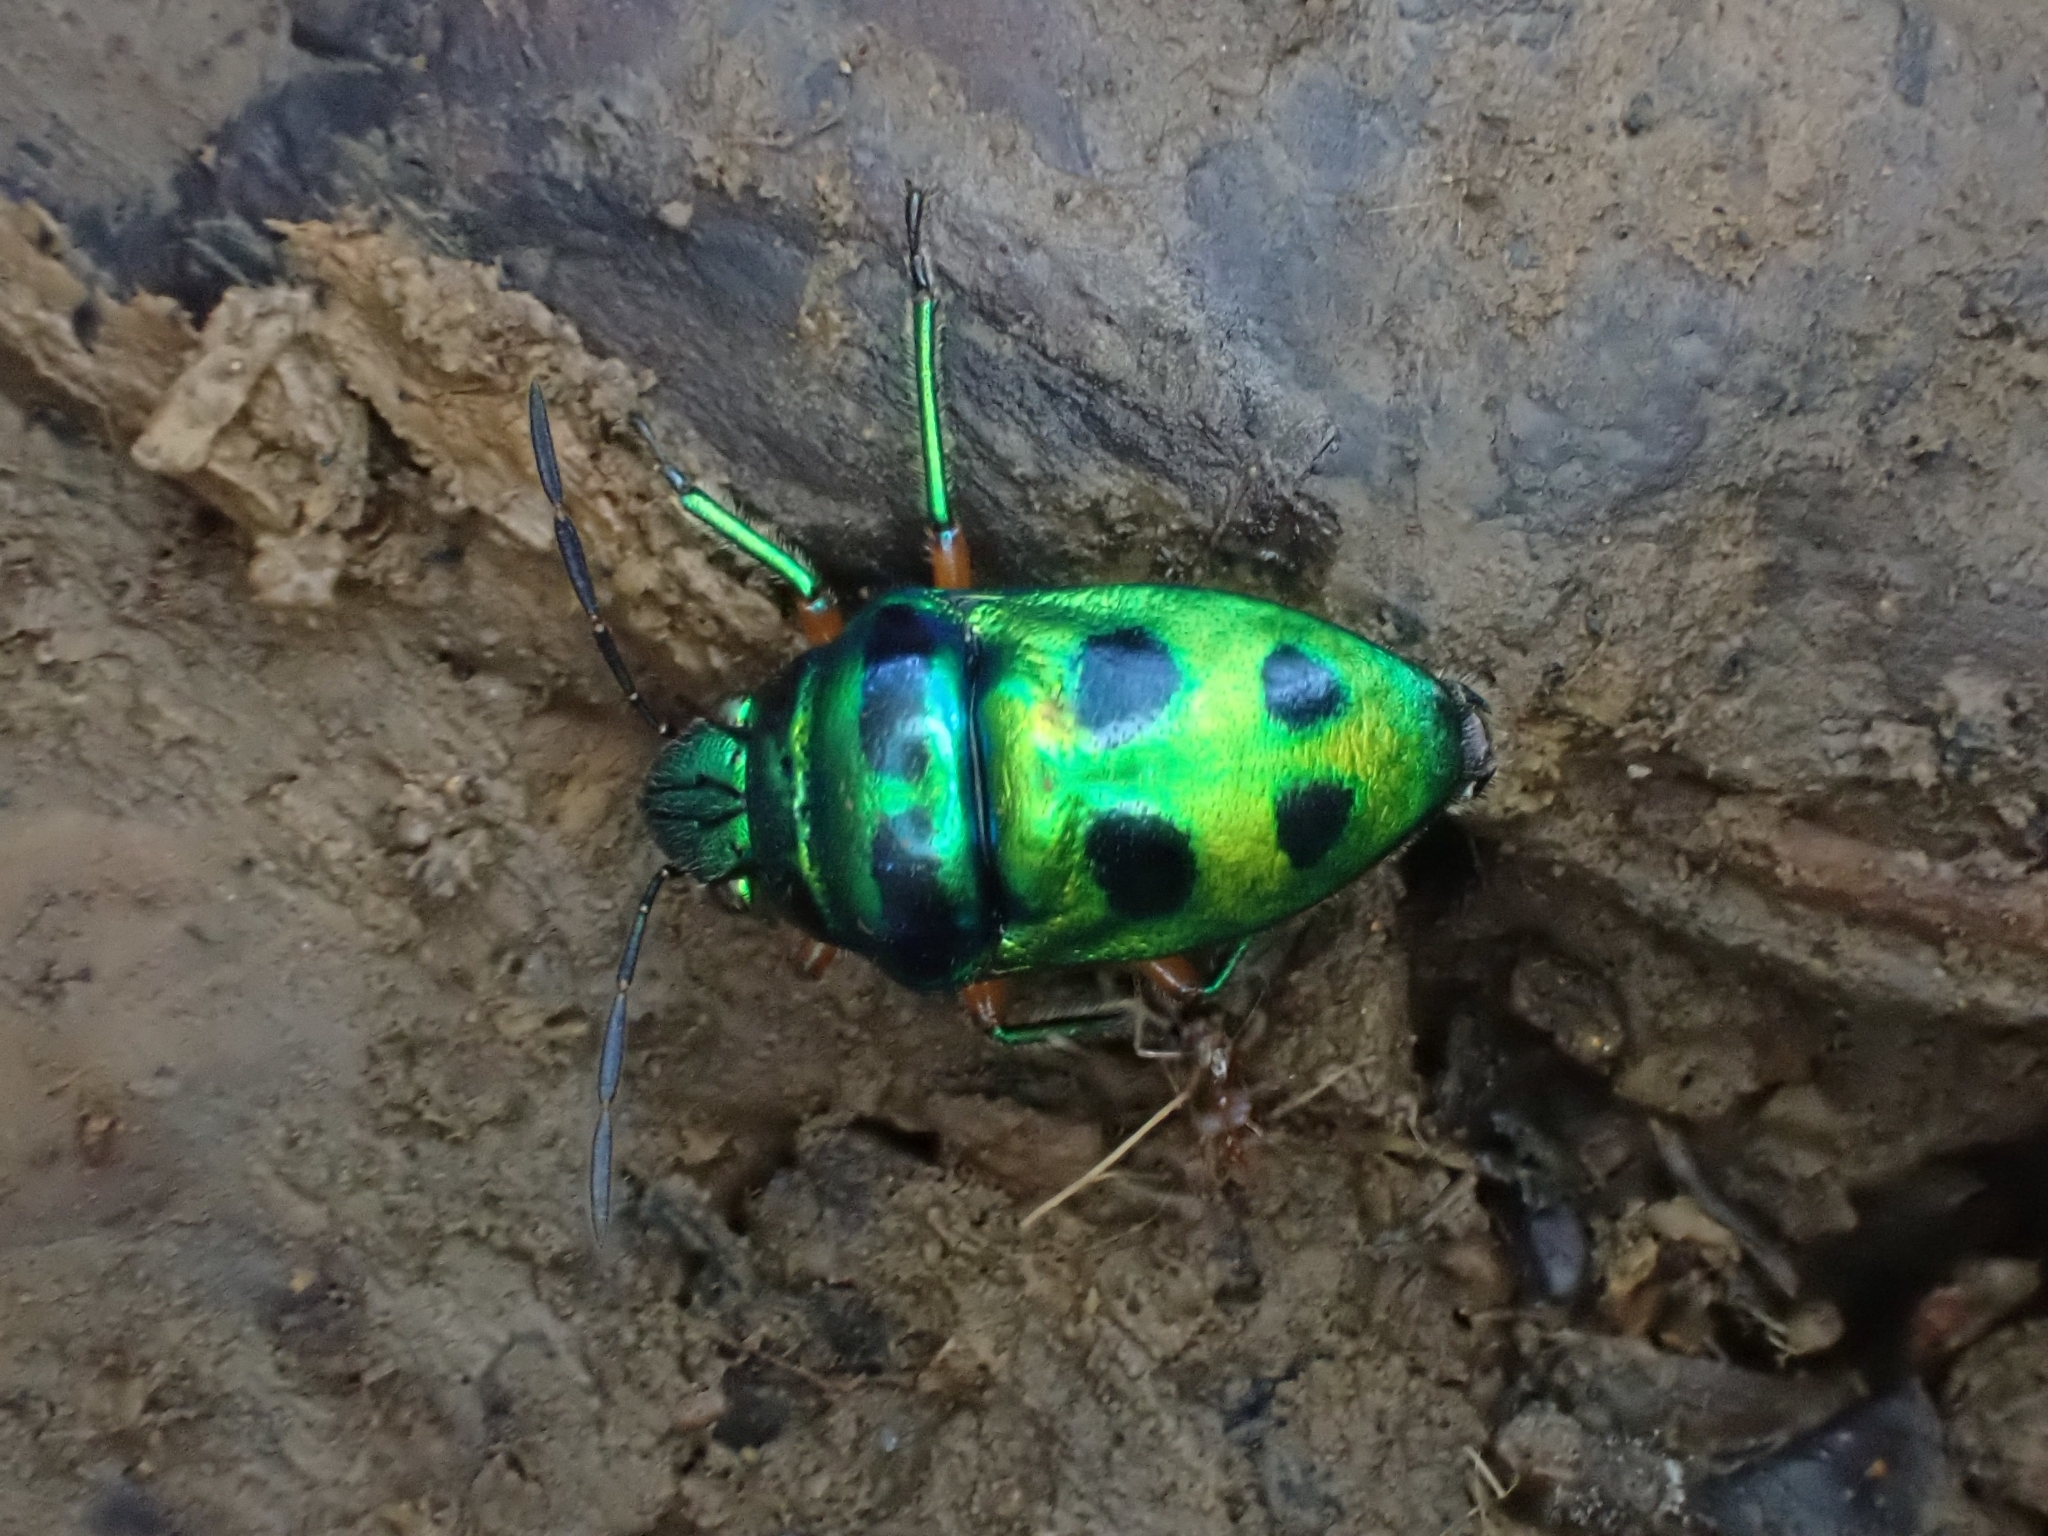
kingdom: Animalia
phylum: Arthropoda
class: Insecta
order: Hemiptera
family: Scutelleridae
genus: Lampromicra
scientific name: Lampromicra miyakona
